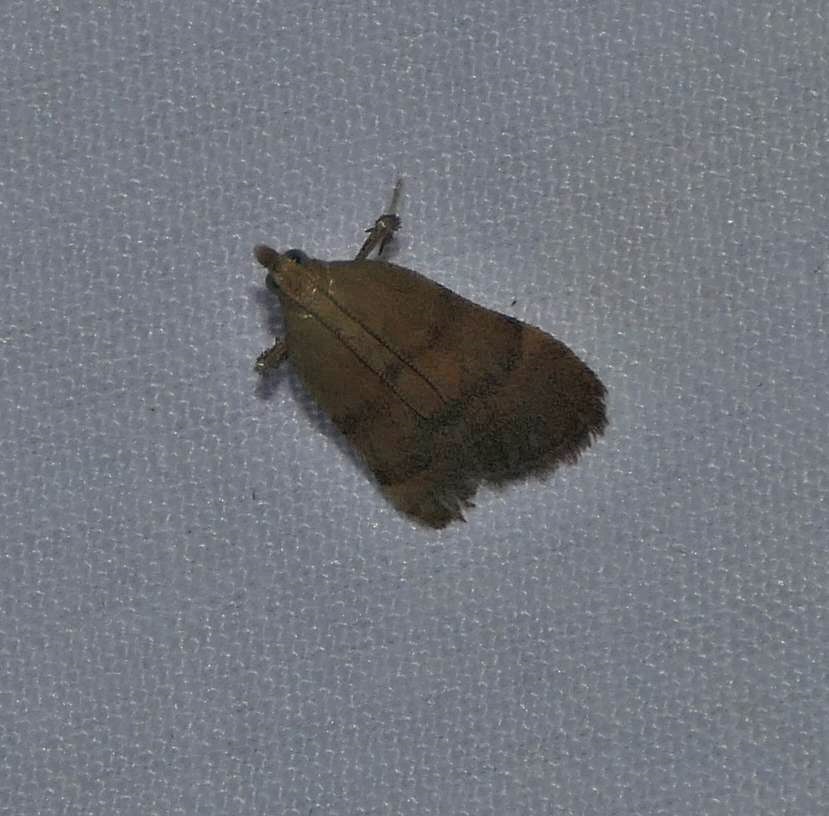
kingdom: Animalia
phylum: Arthropoda
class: Insecta
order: Lepidoptera
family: Pyralidae
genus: Condylolomia
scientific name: Condylolomia participialis
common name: Drab condylolomia moth
